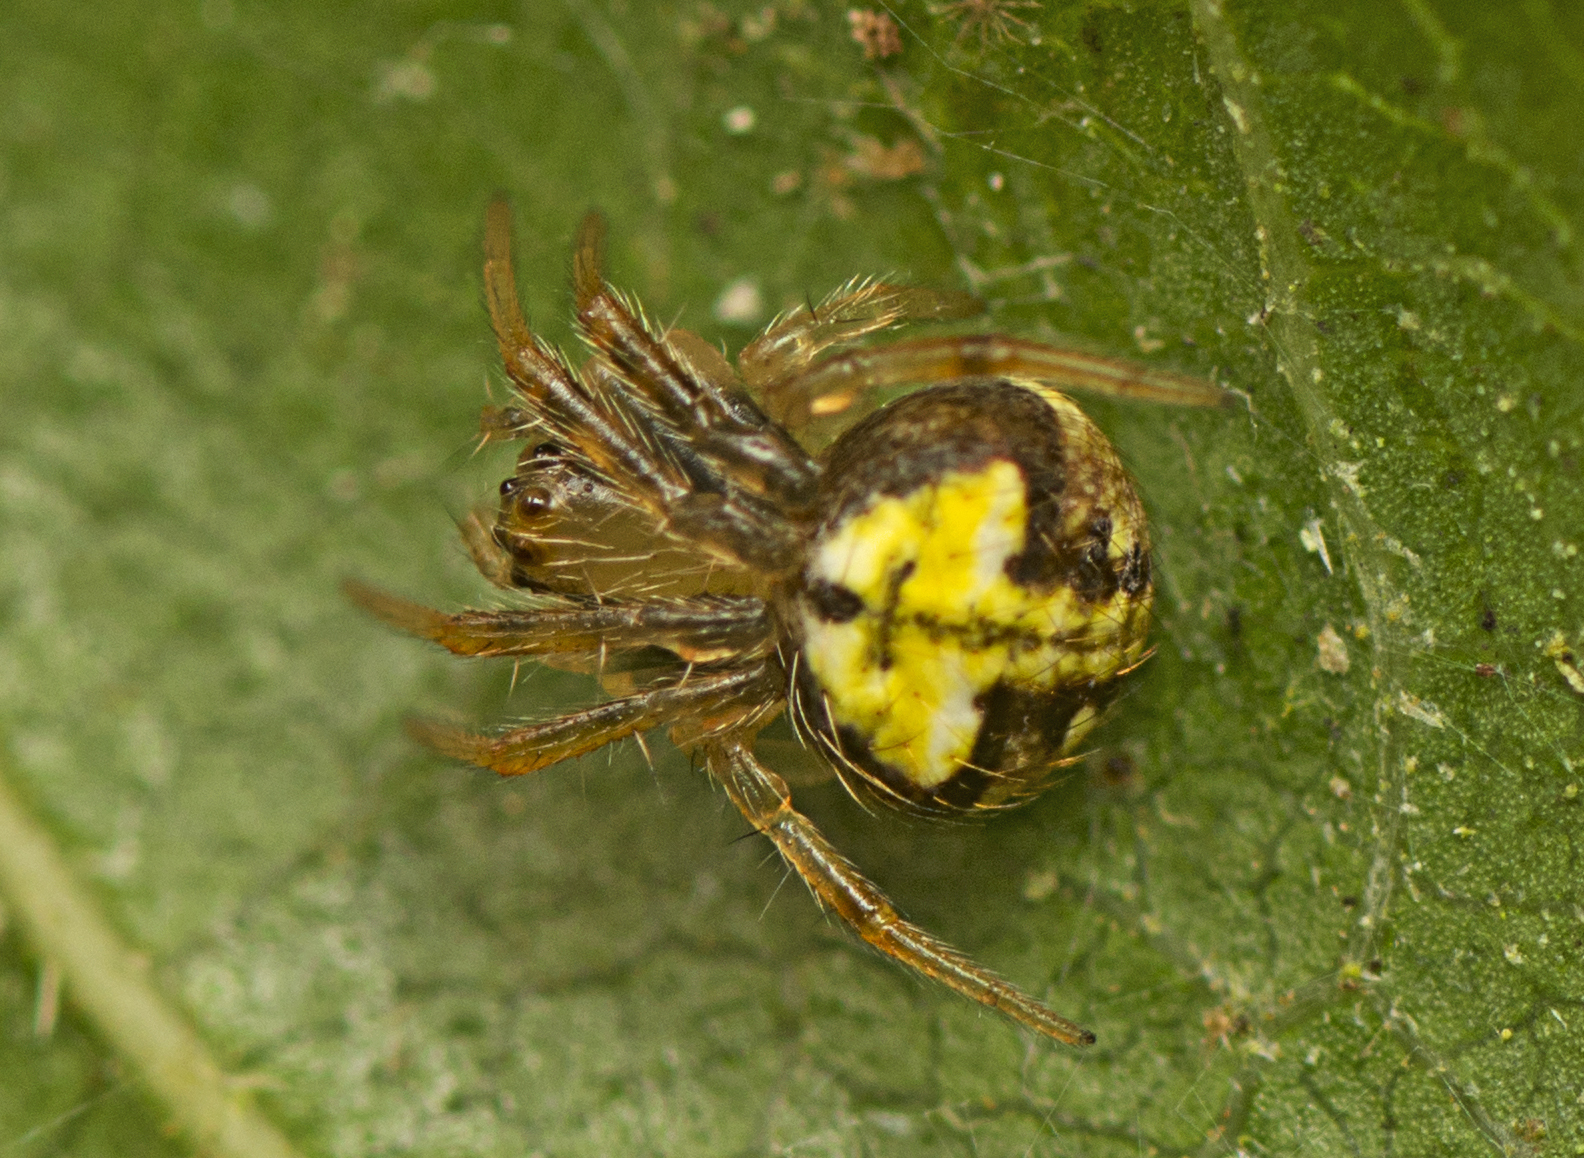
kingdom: Animalia
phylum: Arthropoda
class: Arachnida
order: Araneae
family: Araneidae
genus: Araneus
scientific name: Araneus albotriangulus
